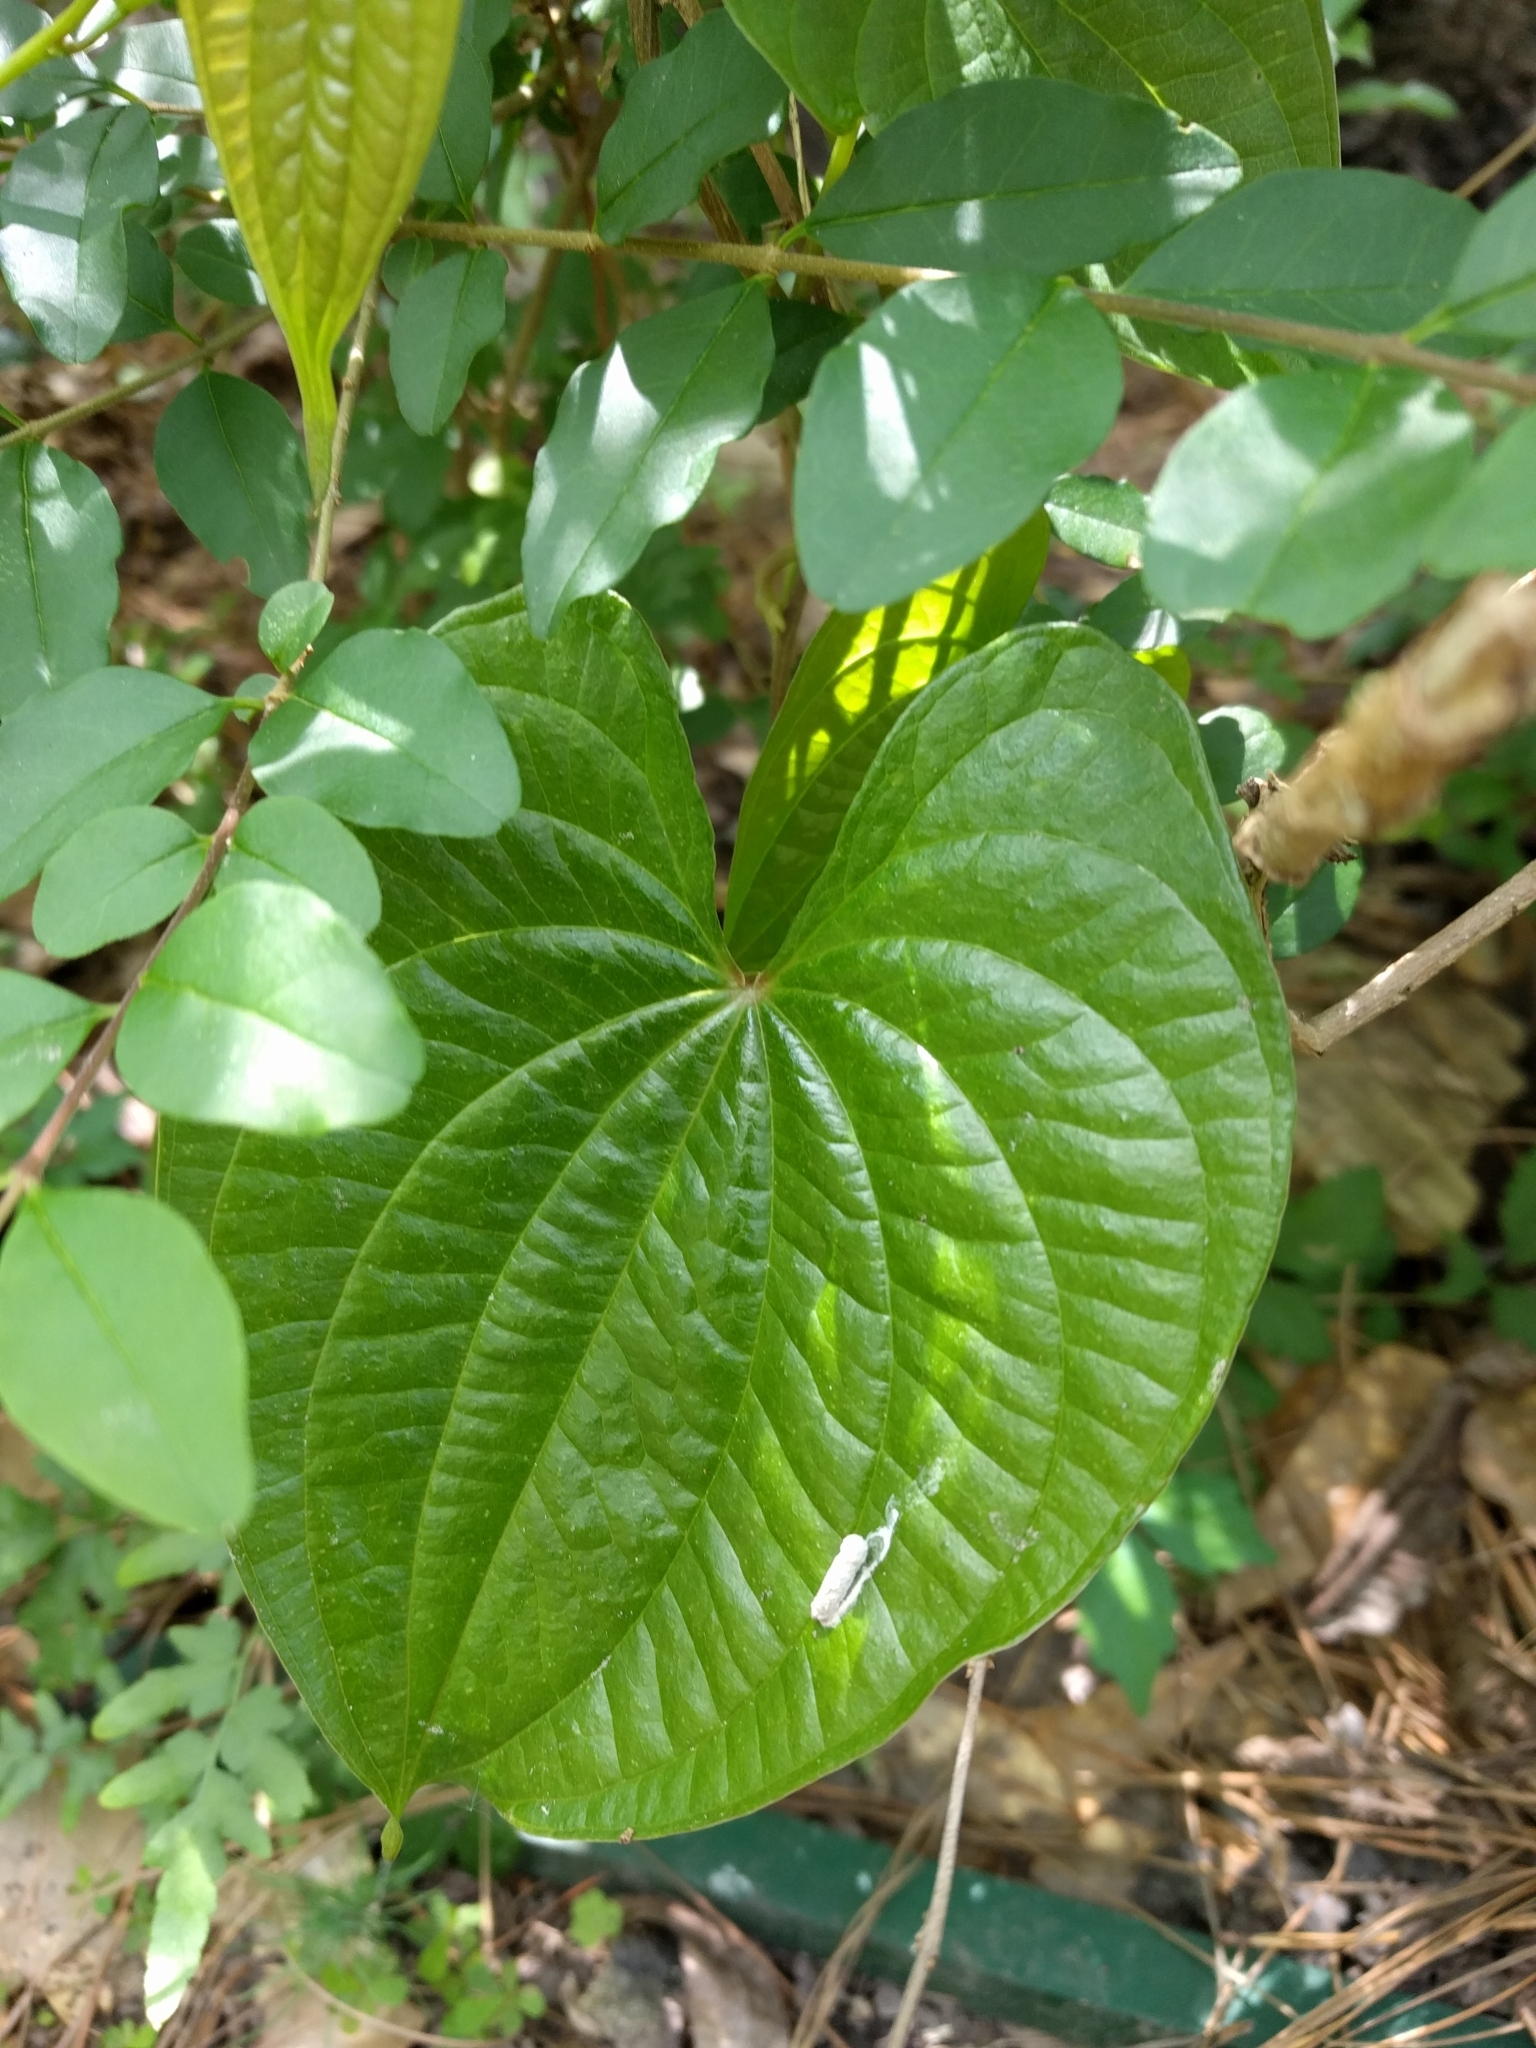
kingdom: Plantae
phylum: Tracheophyta
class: Liliopsida
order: Dioscoreales
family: Dioscoreaceae
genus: Dioscorea
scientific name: Dioscorea bulbifera
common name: Air yam
